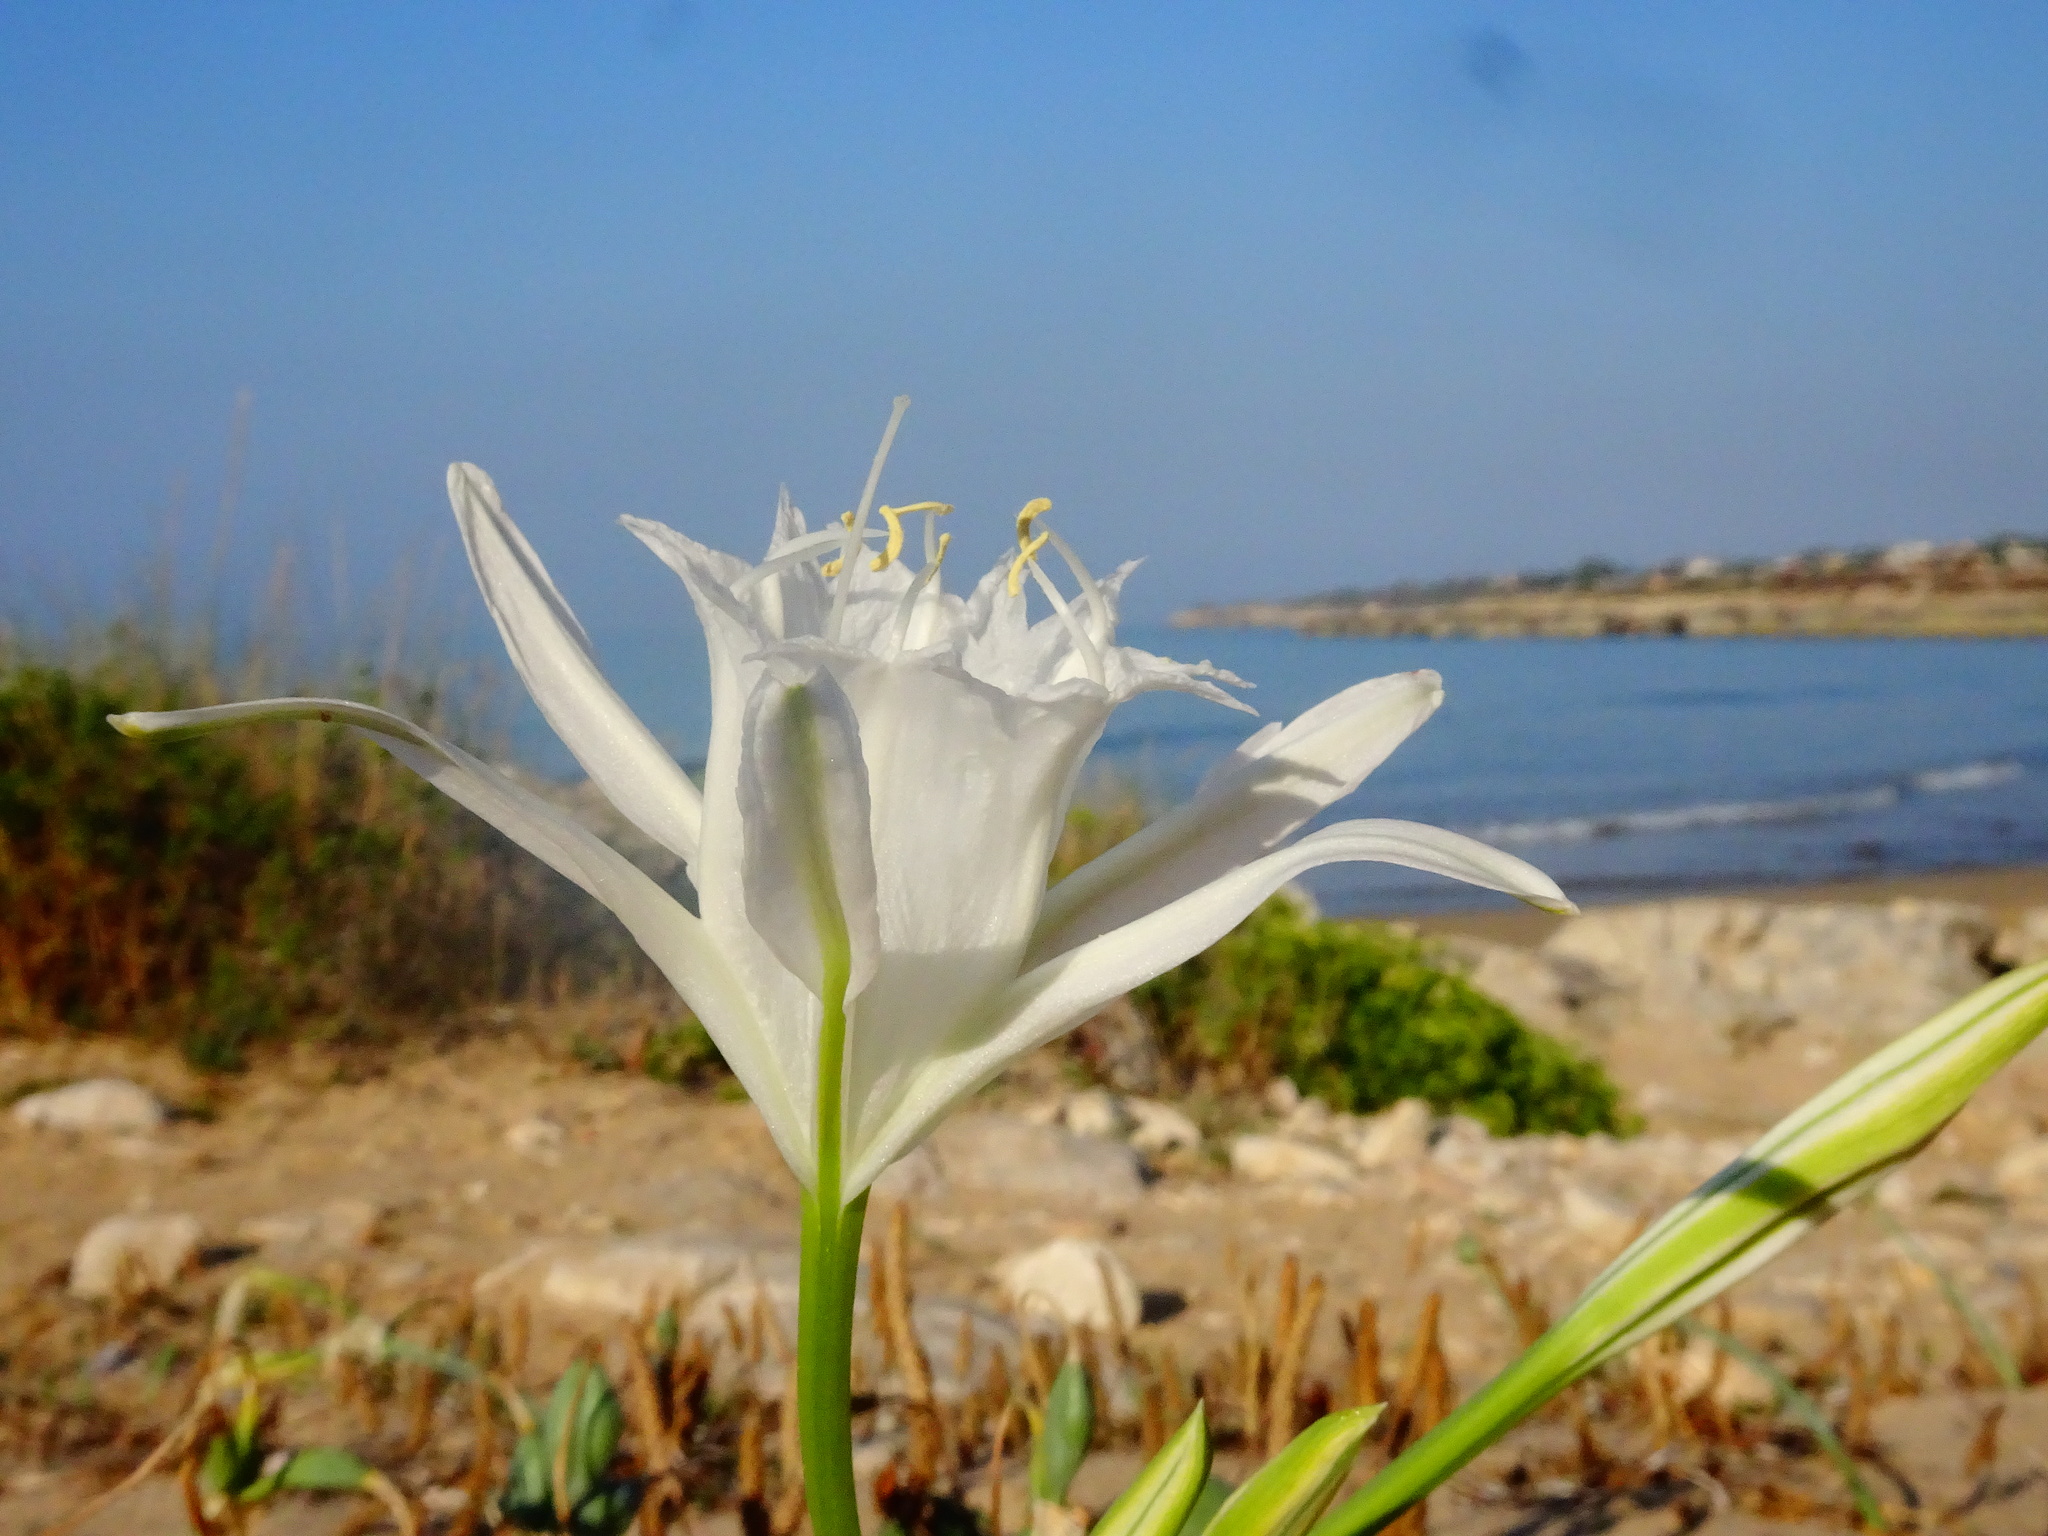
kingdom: Plantae
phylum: Tracheophyta
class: Liliopsida
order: Asparagales
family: Amaryllidaceae
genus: Pancratium
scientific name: Pancratium maritimum
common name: Sea-daffodil
